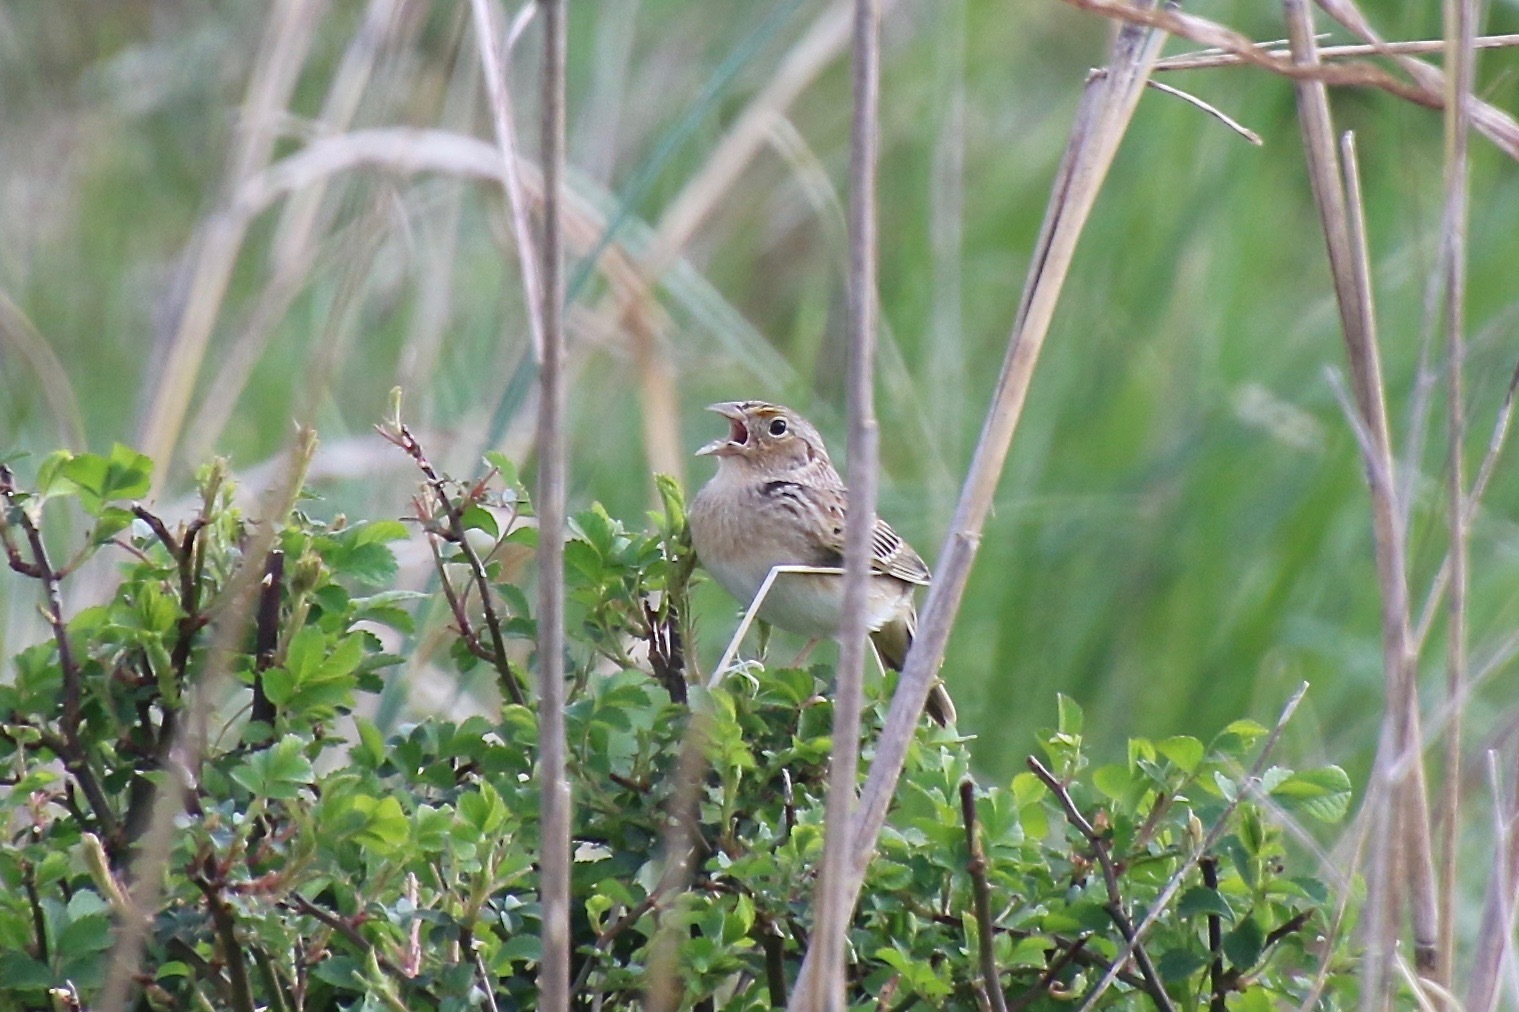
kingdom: Animalia
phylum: Chordata
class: Aves
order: Passeriformes
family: Passerellidae
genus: Ammodramus
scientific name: Ammodramus savannarum
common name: Grasshopper sparrow
